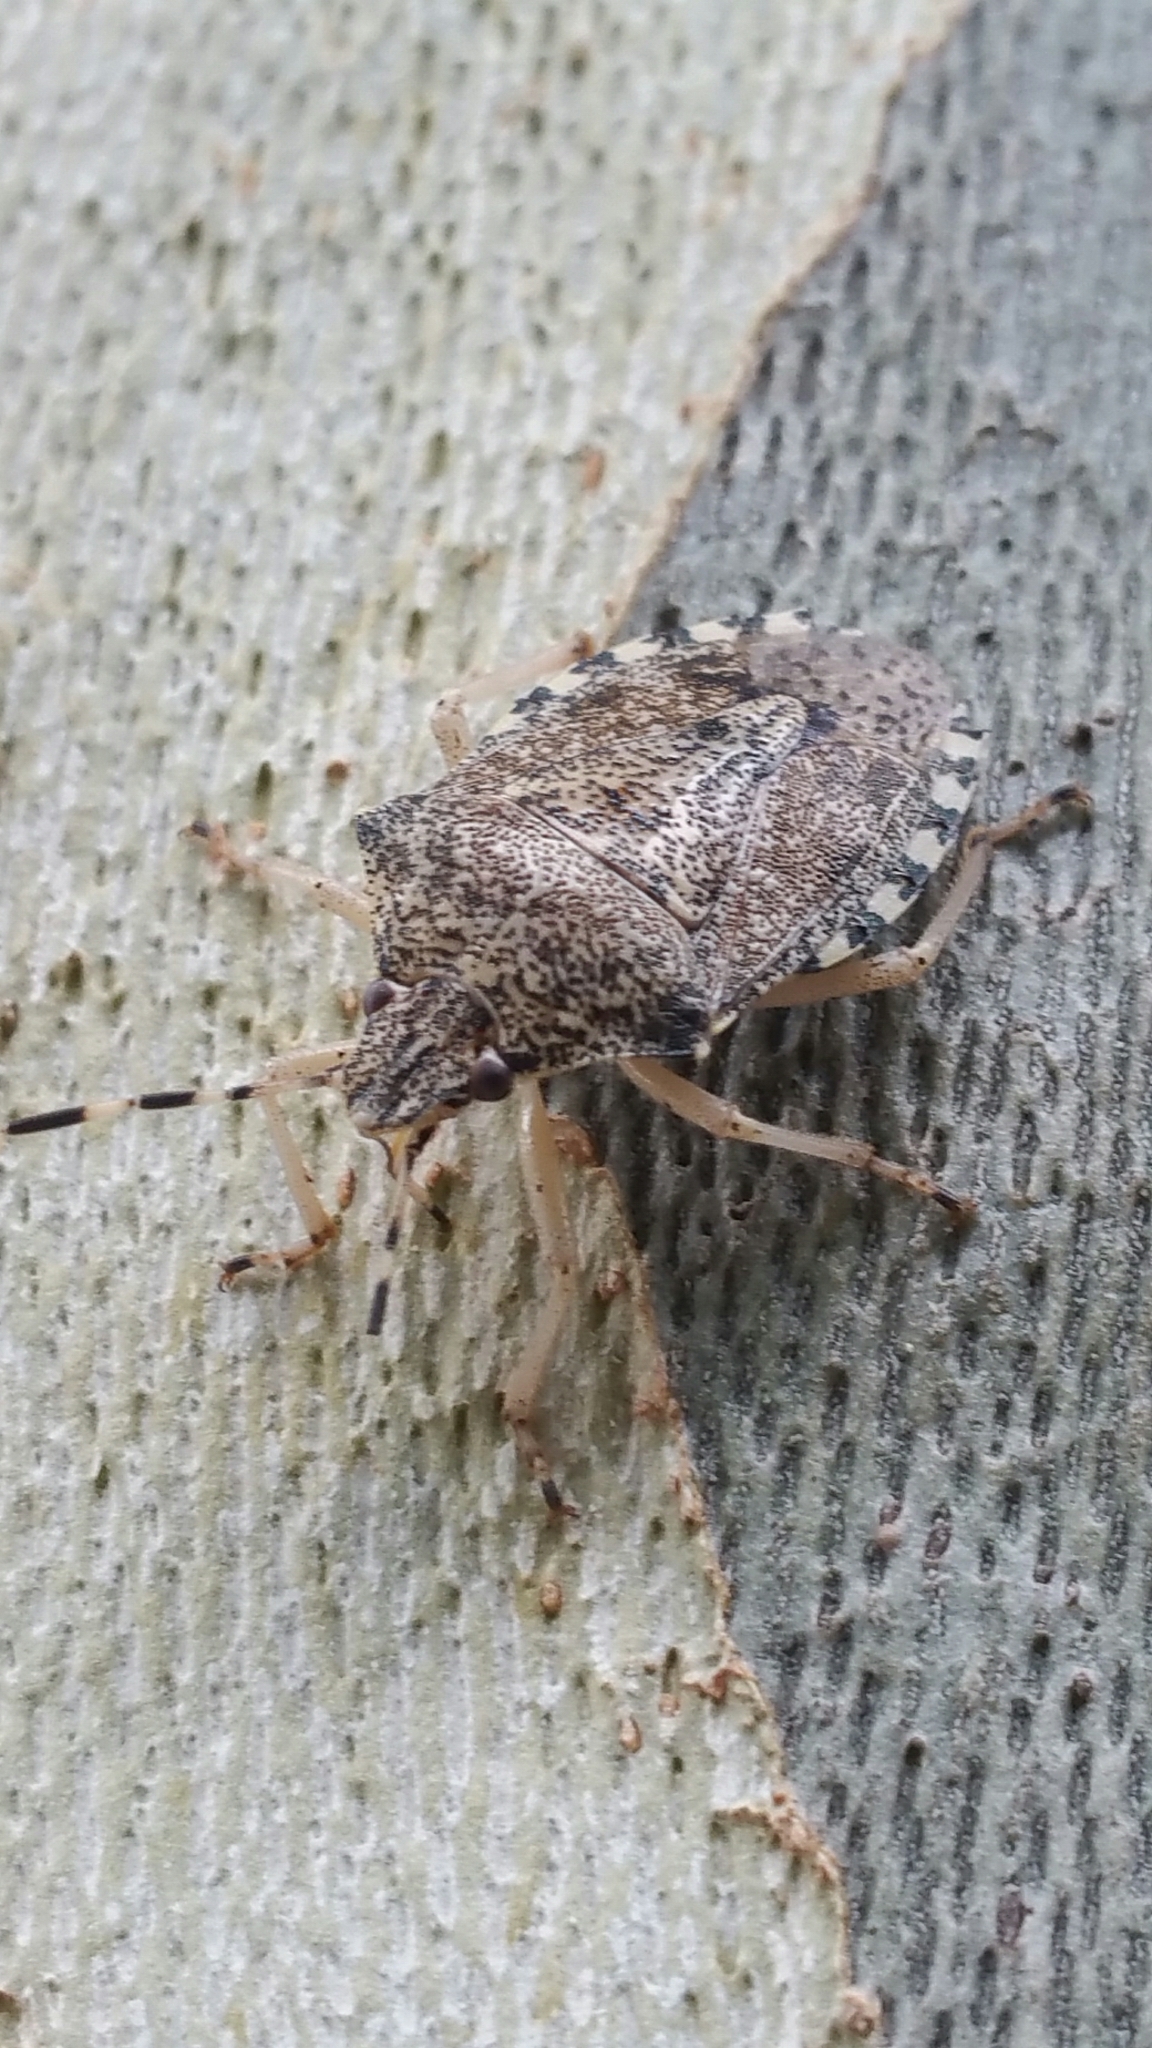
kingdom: Animalia
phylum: Arthropoda
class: Insecta
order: Hemiptera
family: Pentatomidae
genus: Rhaphigaster
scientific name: Rhaphigaster nebulosa
